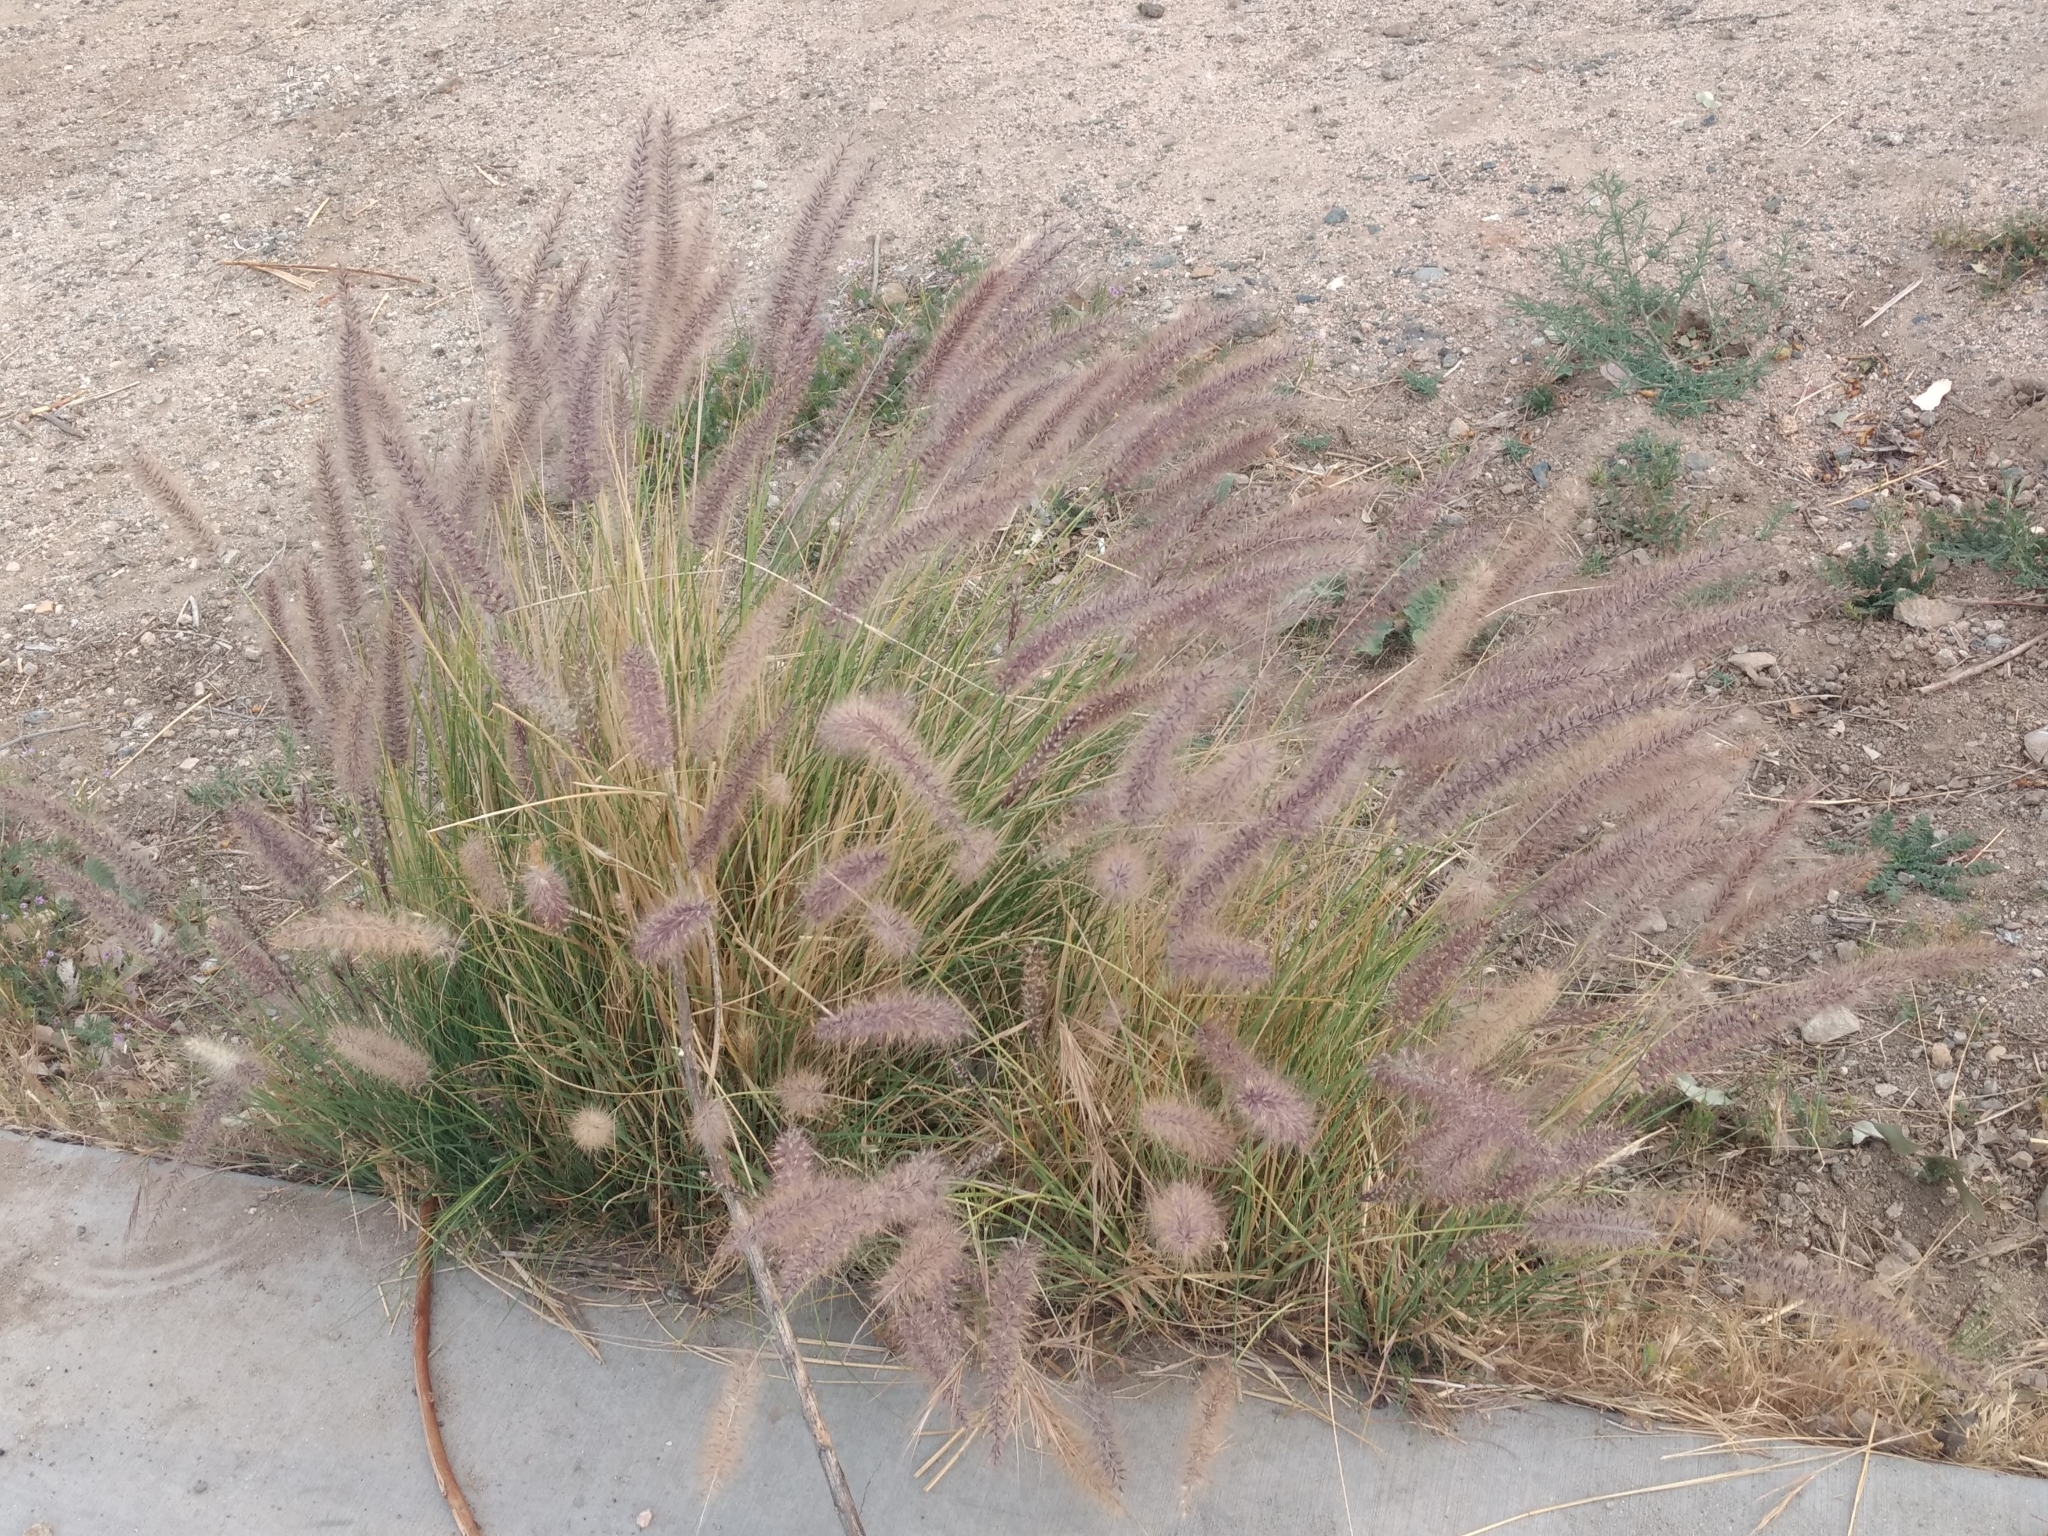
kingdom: Plantae
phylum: Tracheophyta
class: Liliopsida
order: Poales
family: Poaceae
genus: Cenchrus
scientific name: Cenchrus setaceus
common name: Crimson fountaingrass
